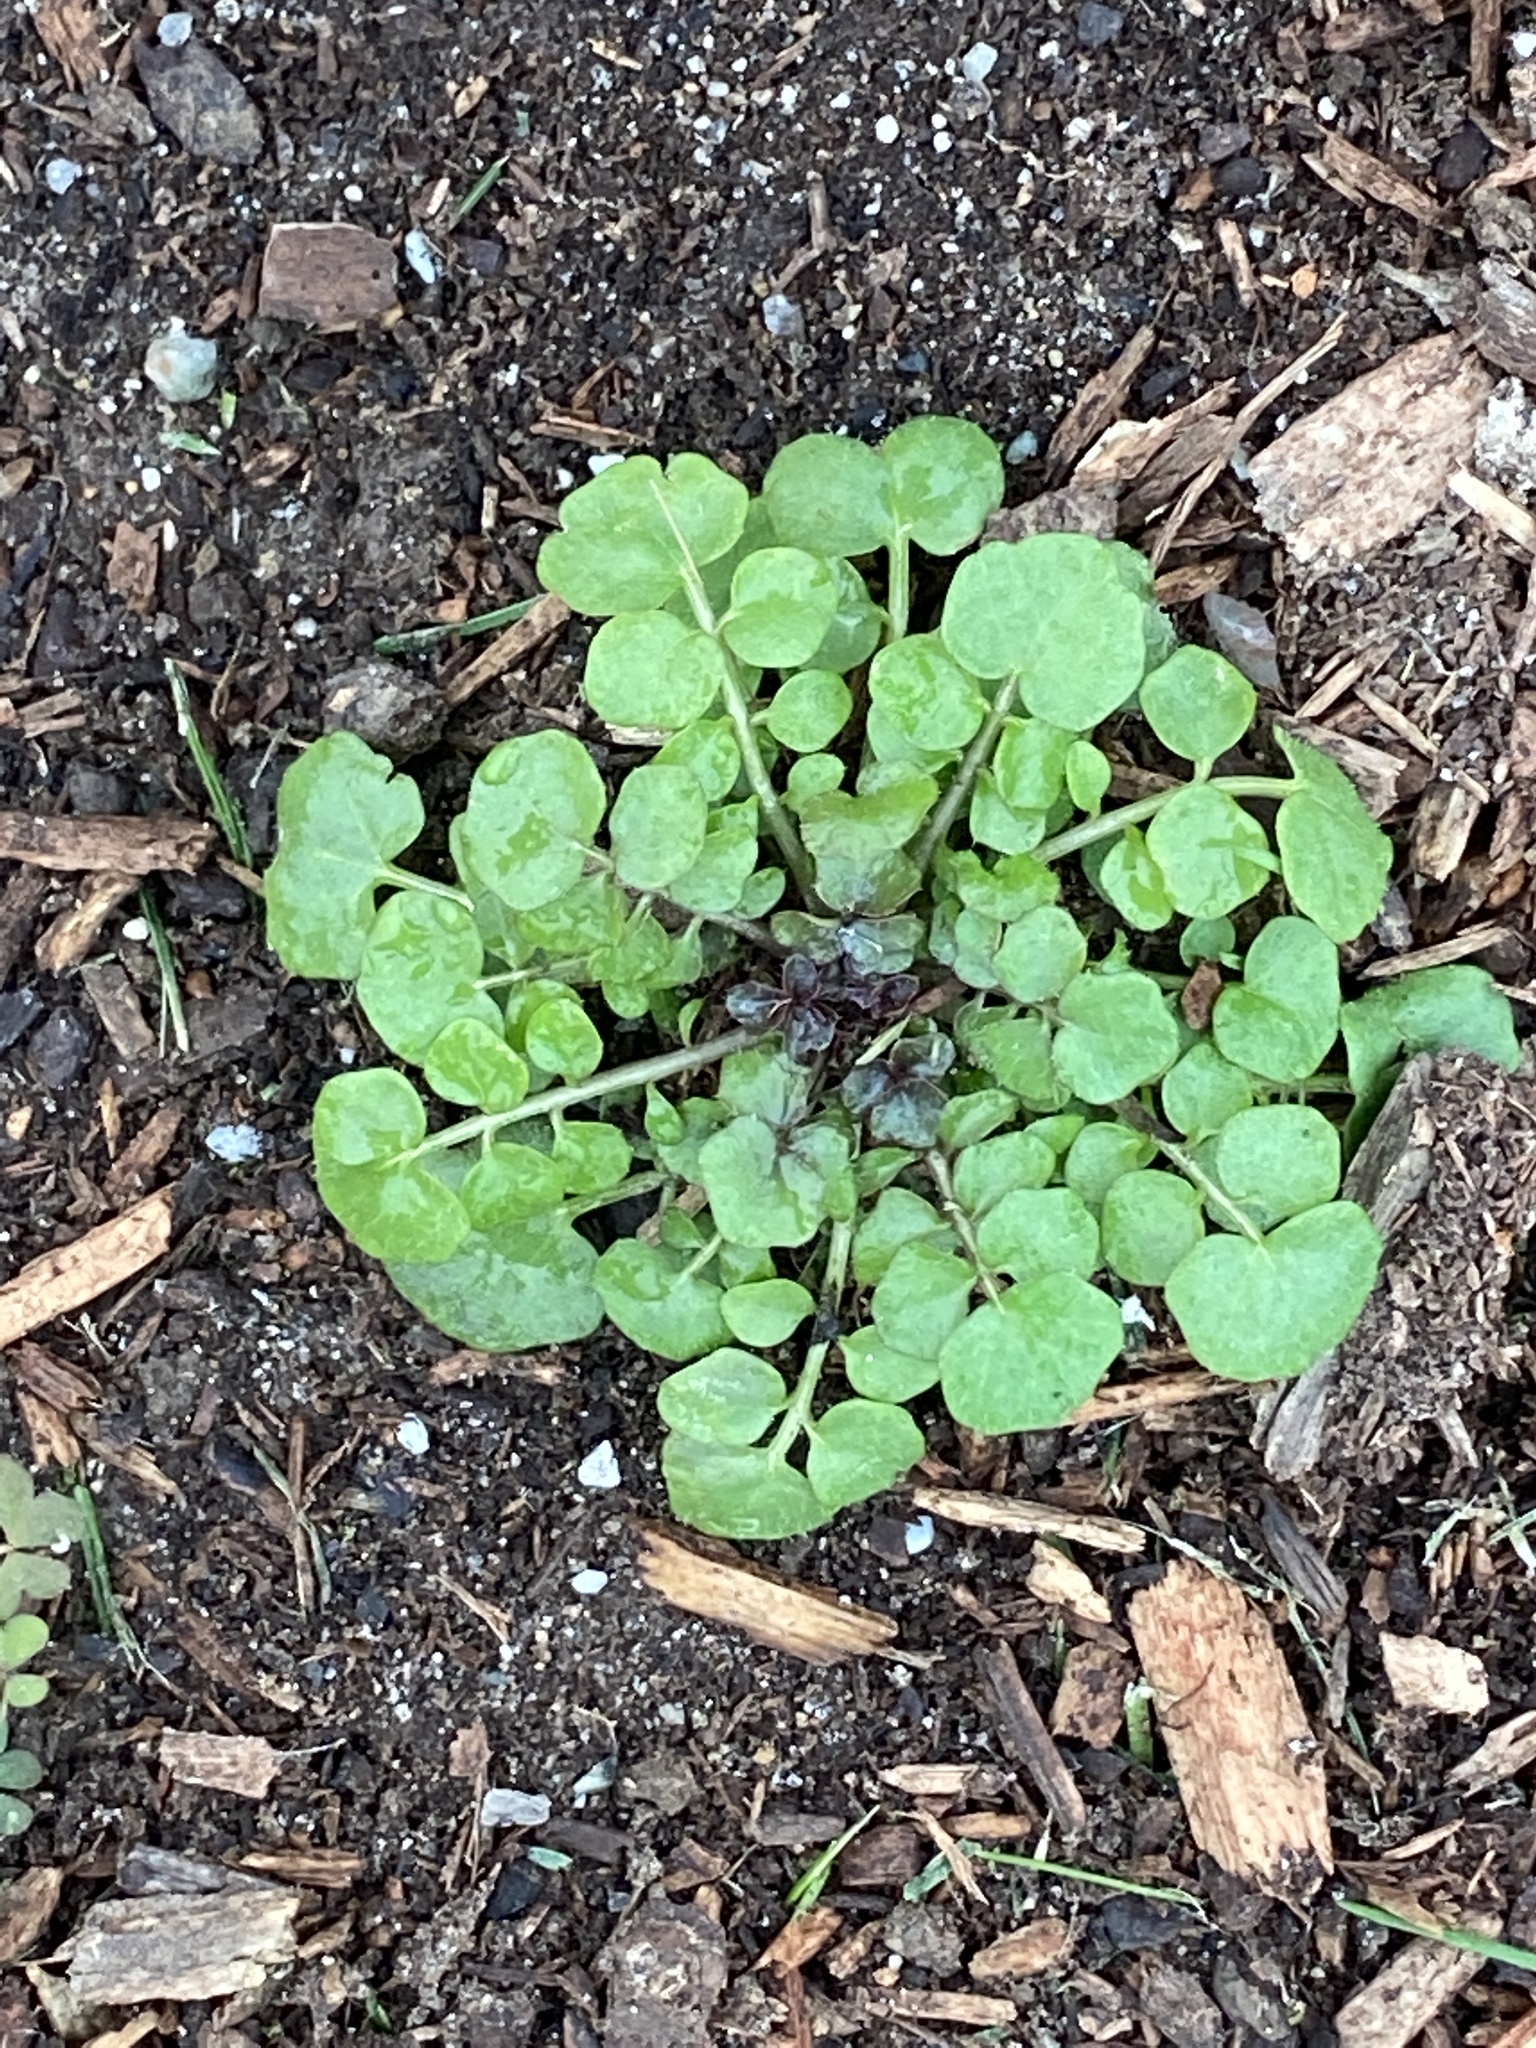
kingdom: Plantae
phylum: Tracheophyta
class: Magnoliopsida
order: Brassicales
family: Brassicaceae
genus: Cardamine
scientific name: Cardamine hirsuta
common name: Hairy bittercress
